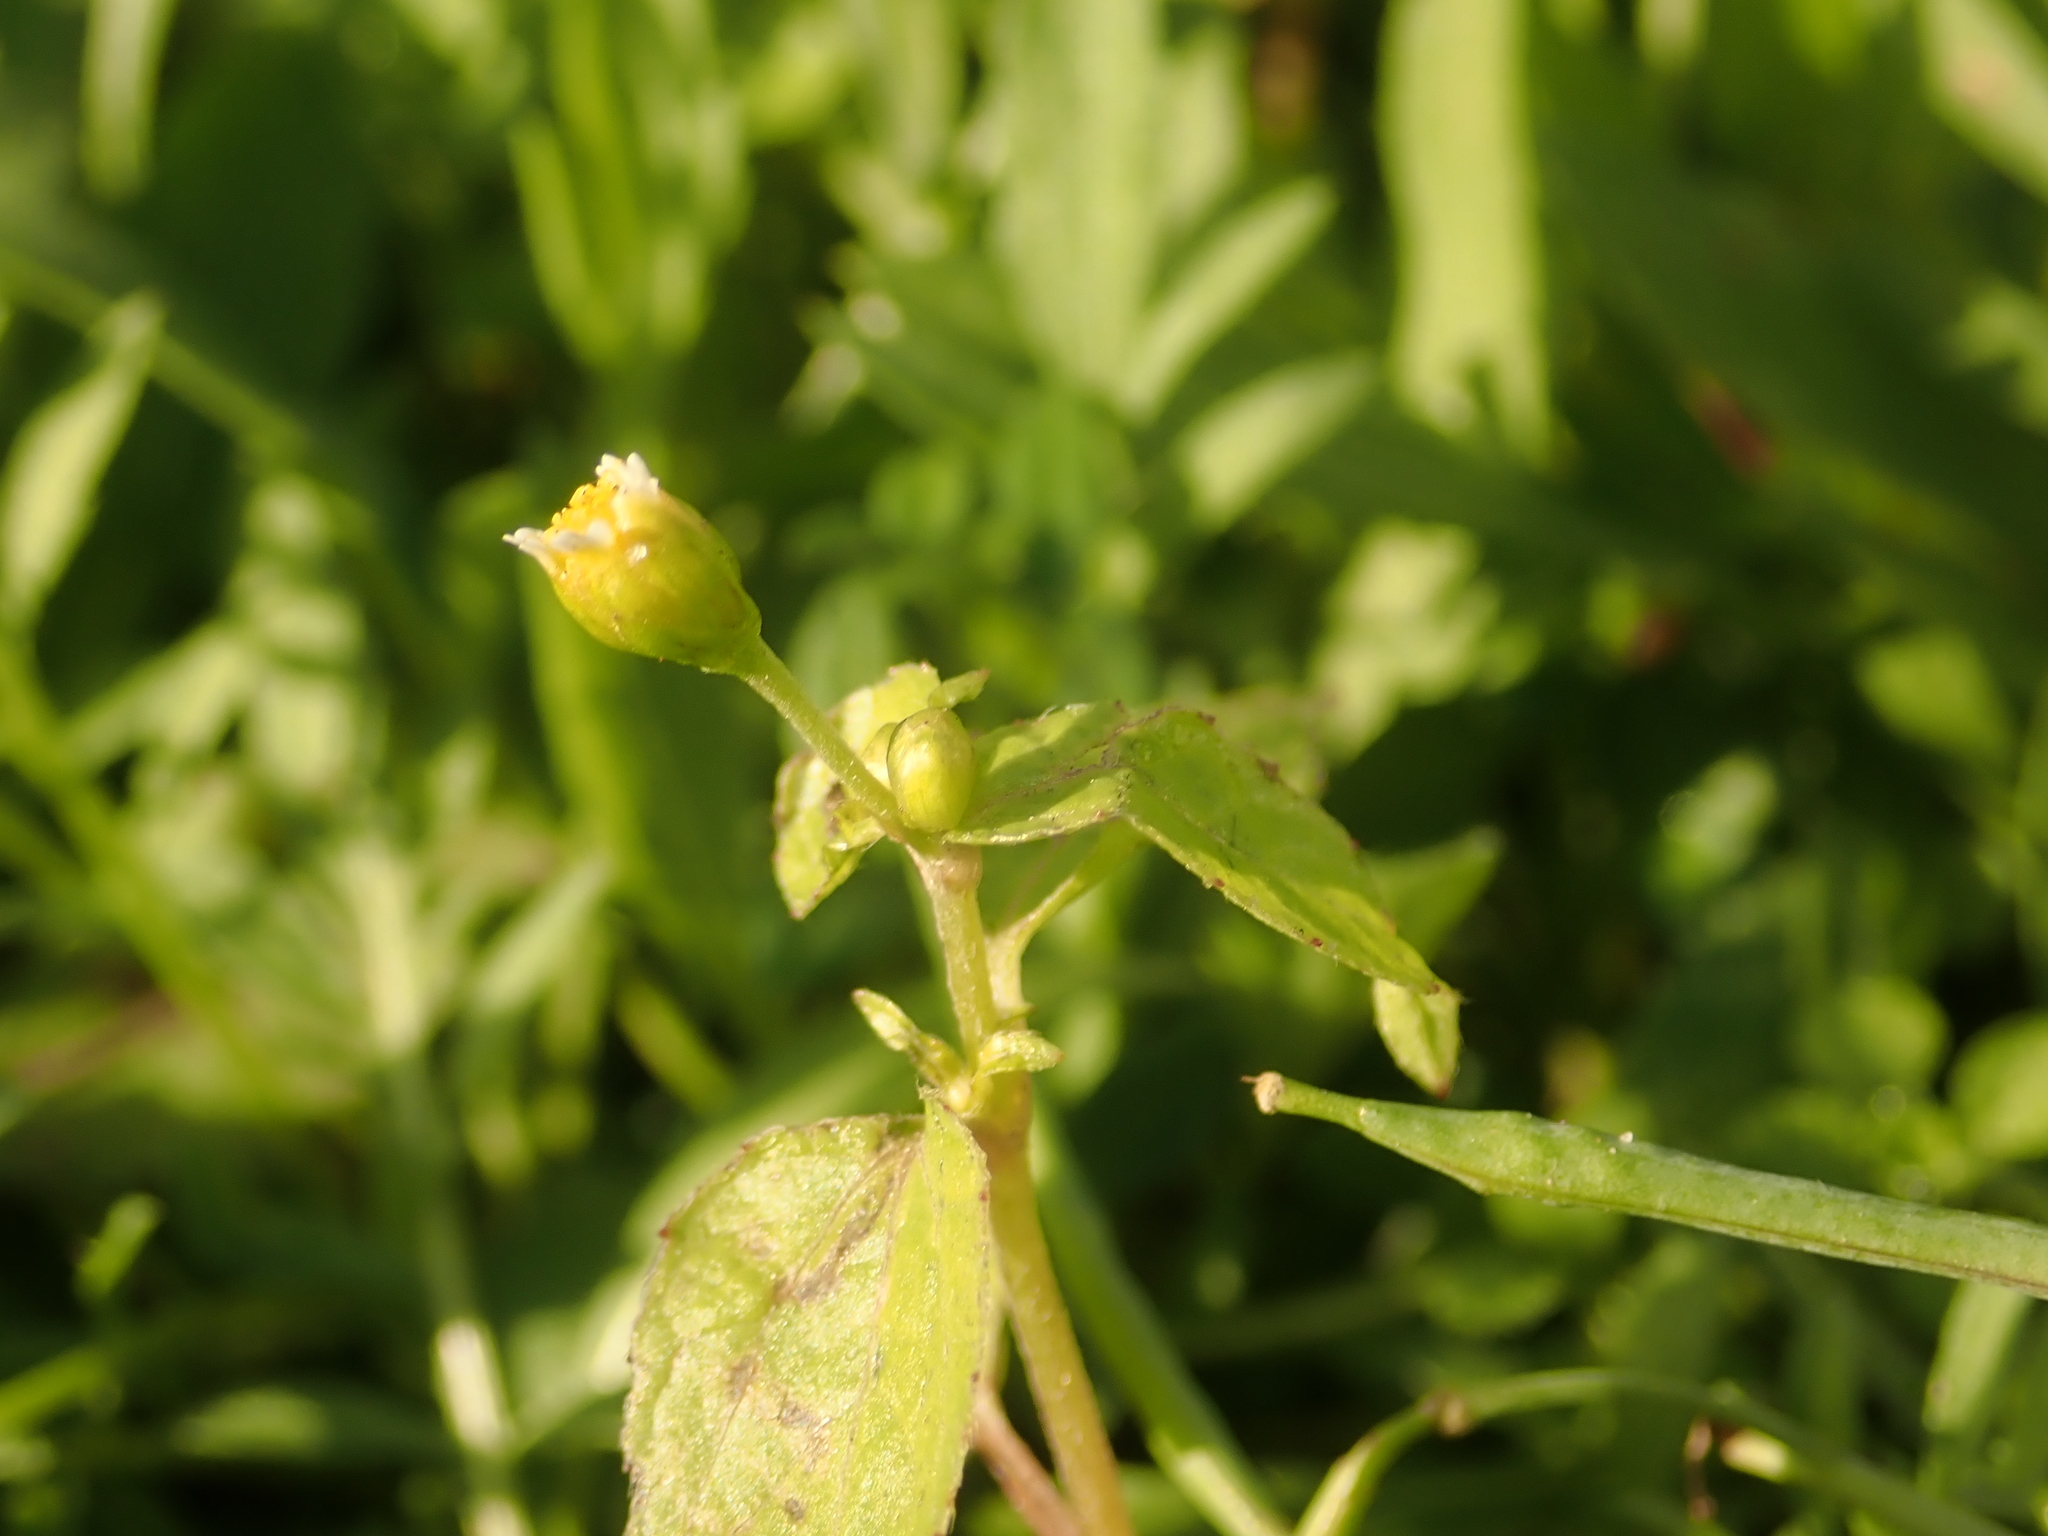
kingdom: Plantae
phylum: Tracheophyta
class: Magnoliopsida
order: Asterales
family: Asteraceae
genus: Galinsoga
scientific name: Galinsoga parviflora
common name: Gallant soldier
